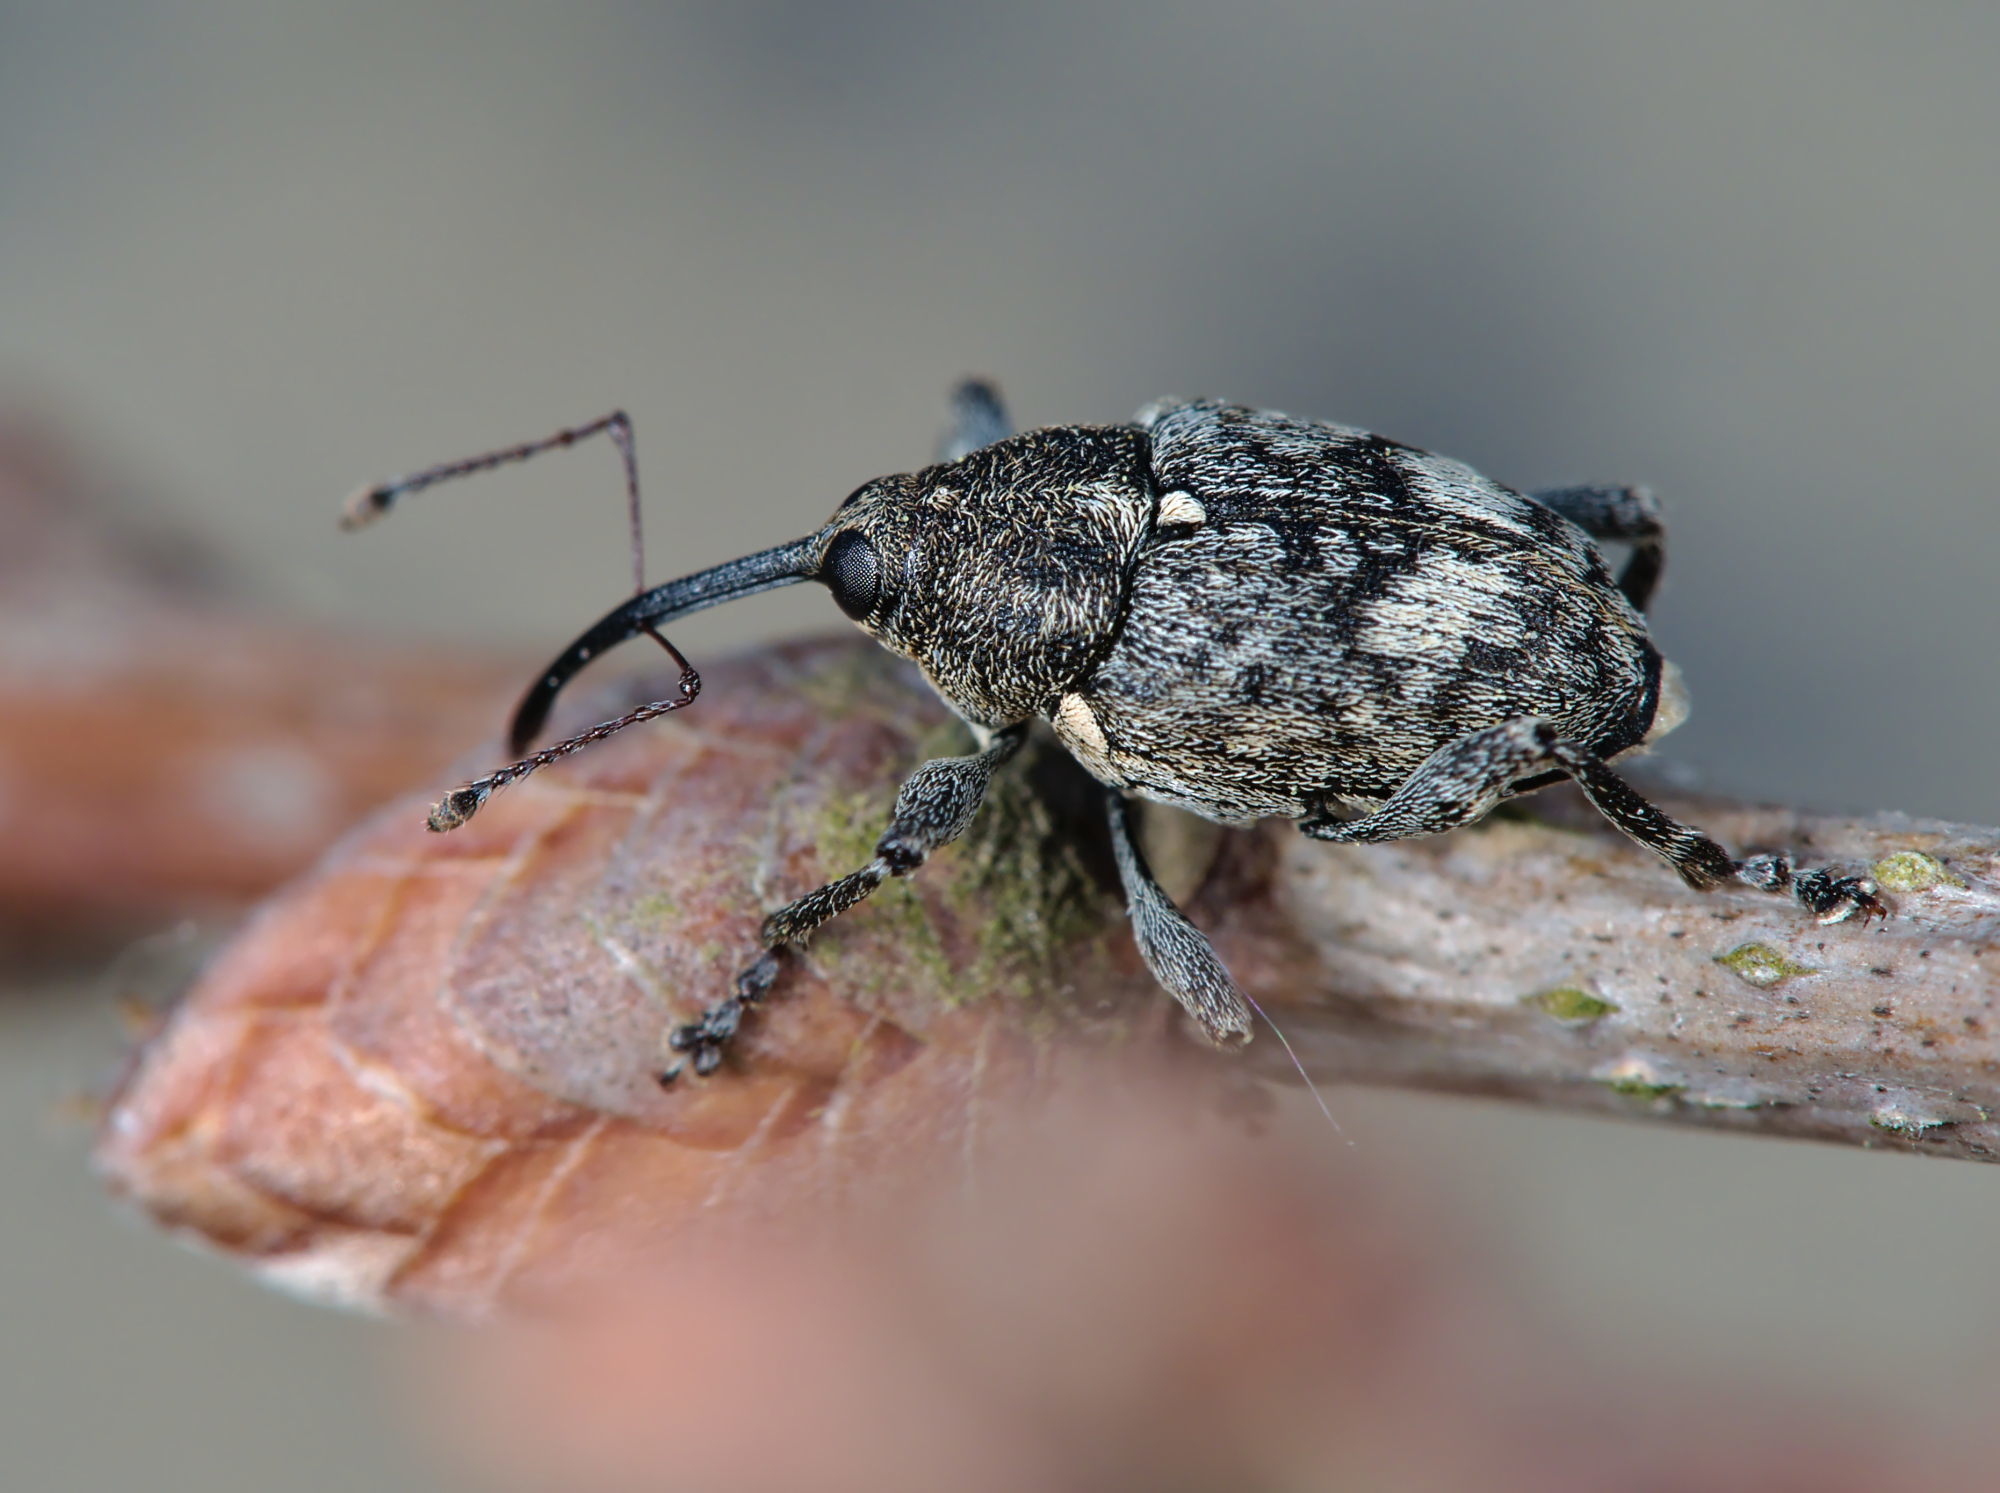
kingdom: Animalia
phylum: Arthropoda
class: Insecta
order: Coleoptera
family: Curculionidae
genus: Curculio
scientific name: Curculio villosus
